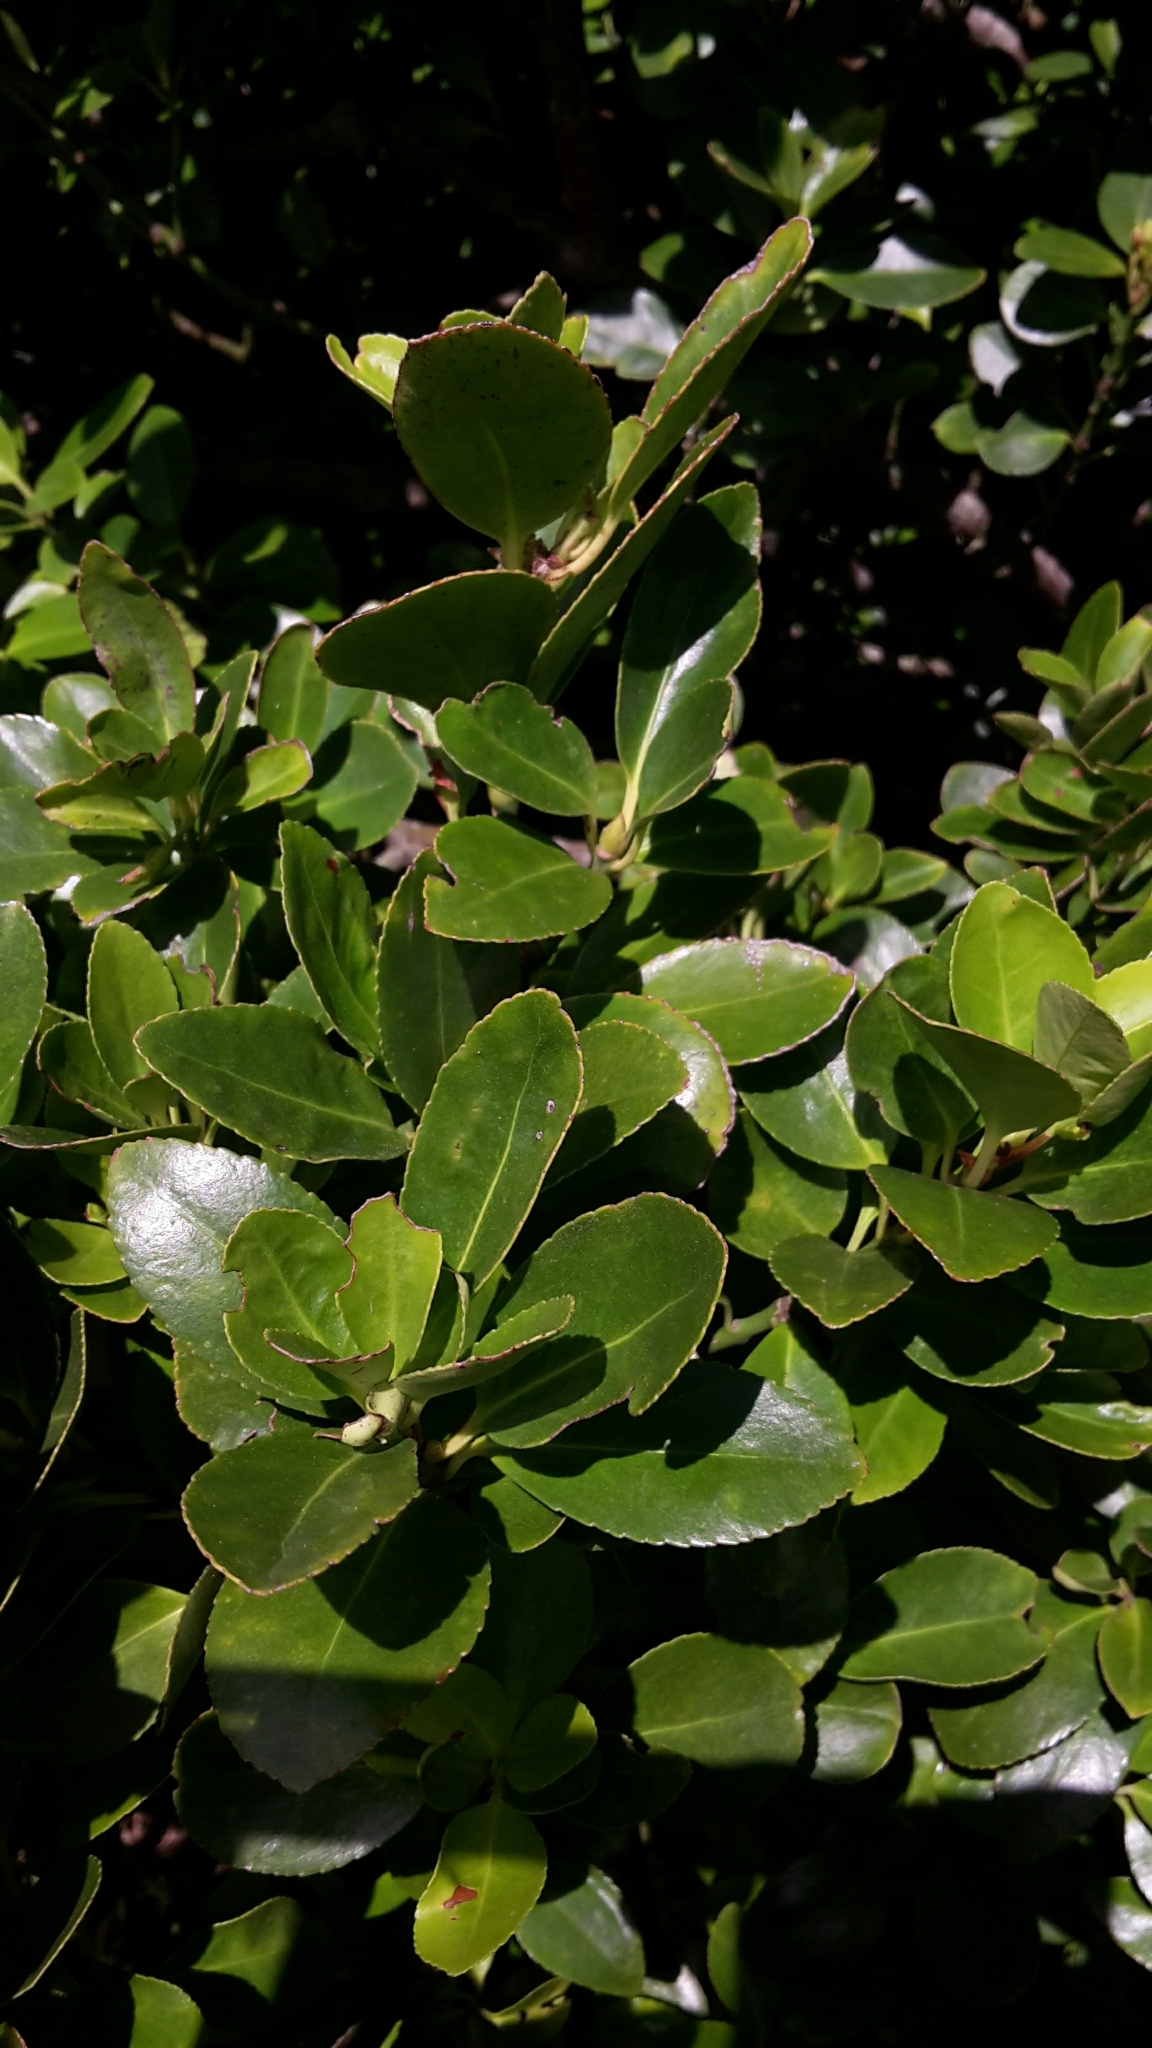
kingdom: Plantae
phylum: Tracheophyta
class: Magnoliopsida
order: Celastrales
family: Celastraceae
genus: Euonymus
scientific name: Euonymus japonicus
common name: Japanese spindletree
